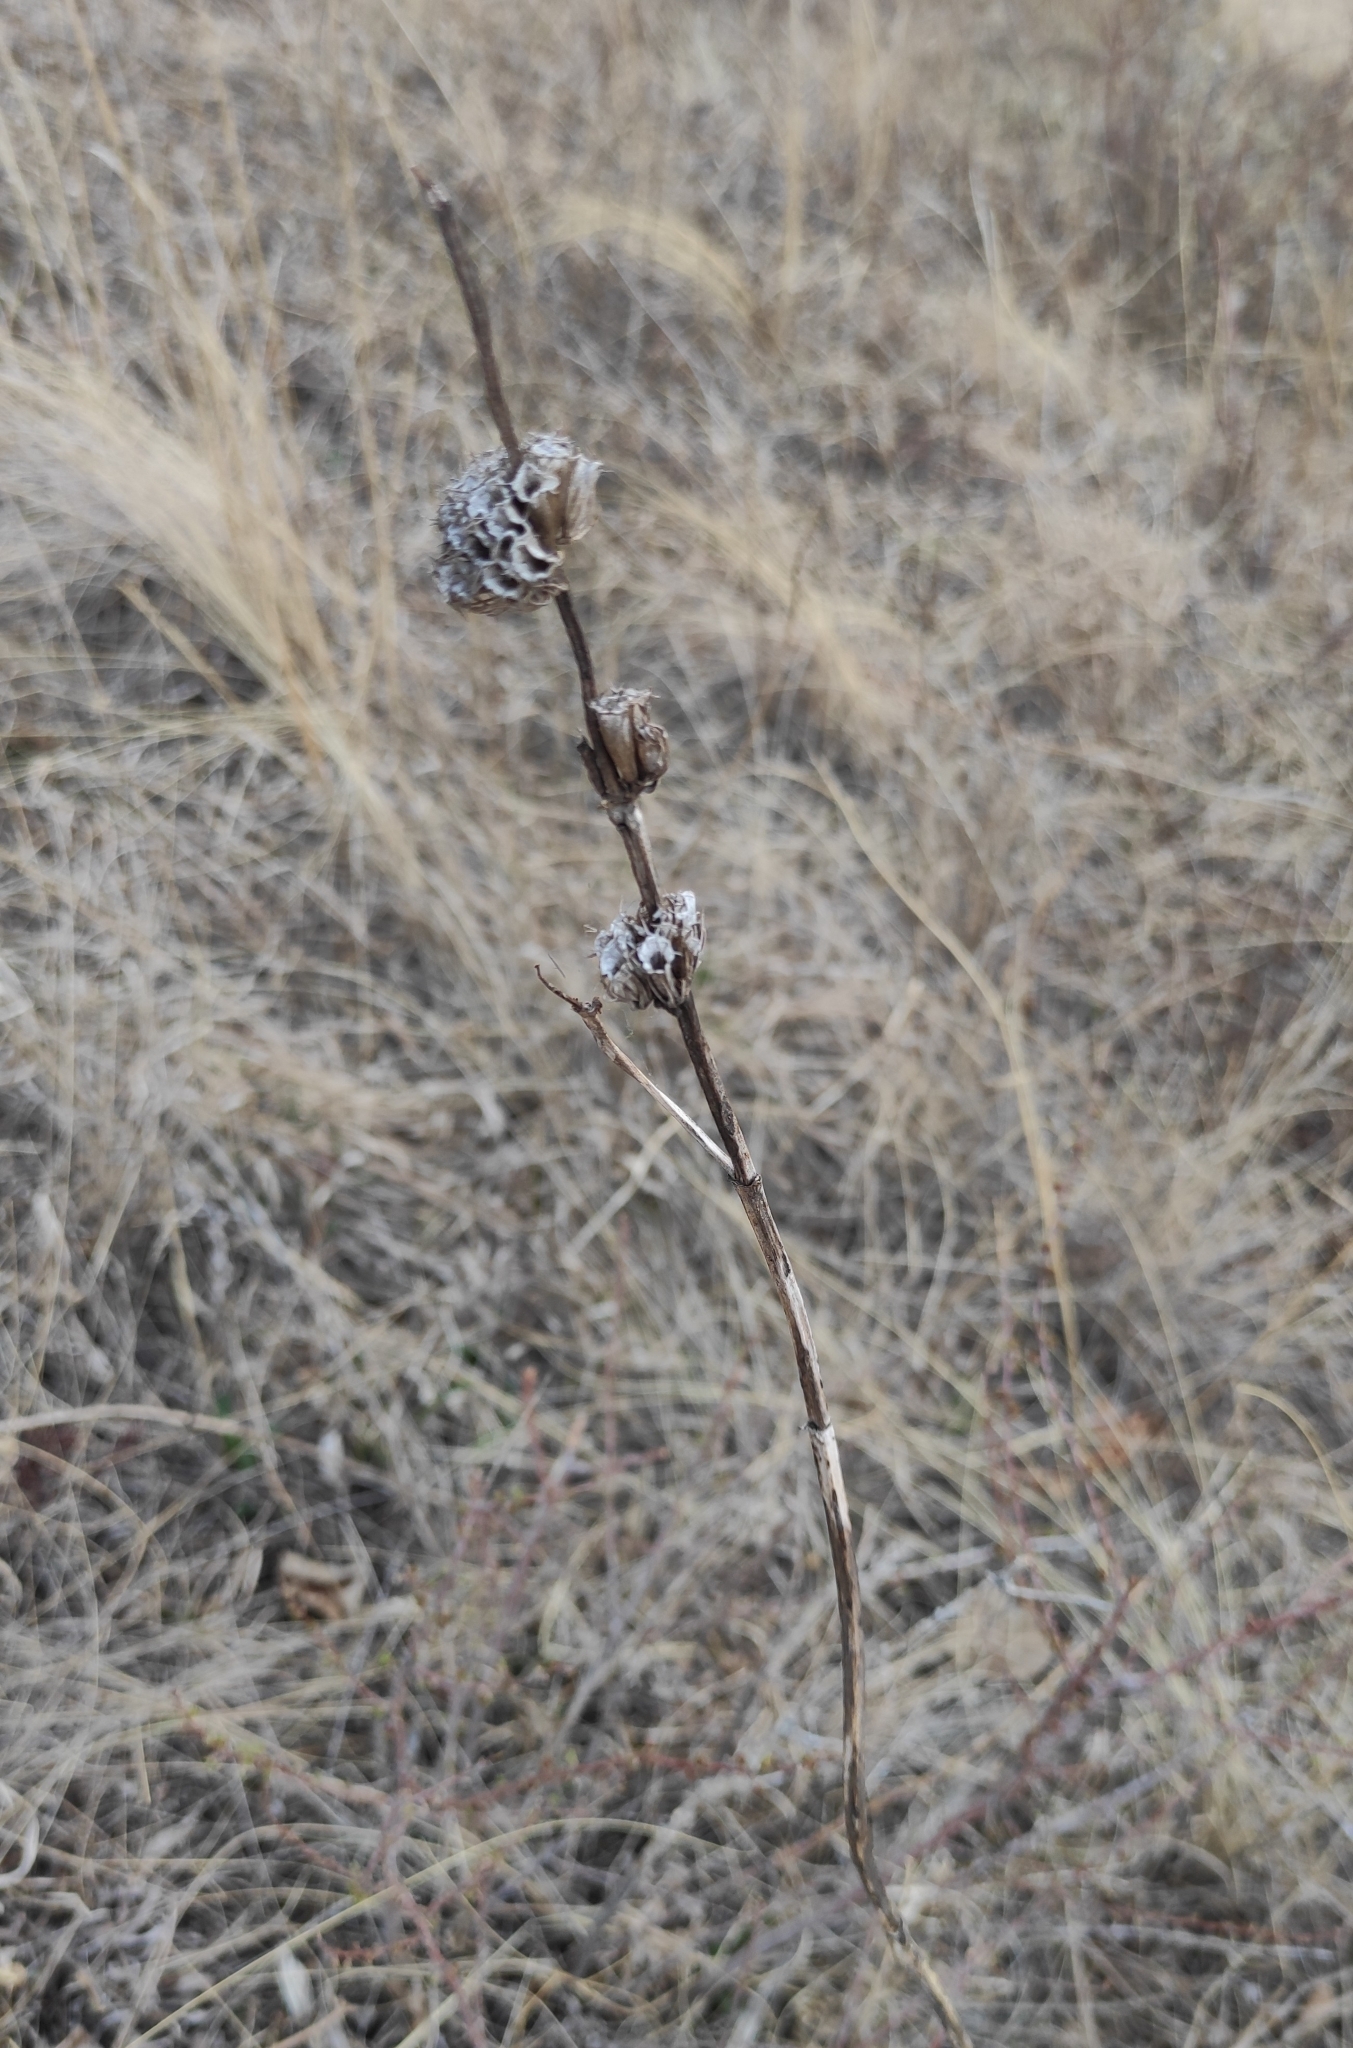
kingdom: Plantae
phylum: Tracheophyta
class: Magnoliopsida
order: Lamiales
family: Lamiaceae
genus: Phlomoides
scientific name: Phlomoides tuberosa
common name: Tuberous jerusalem sage
